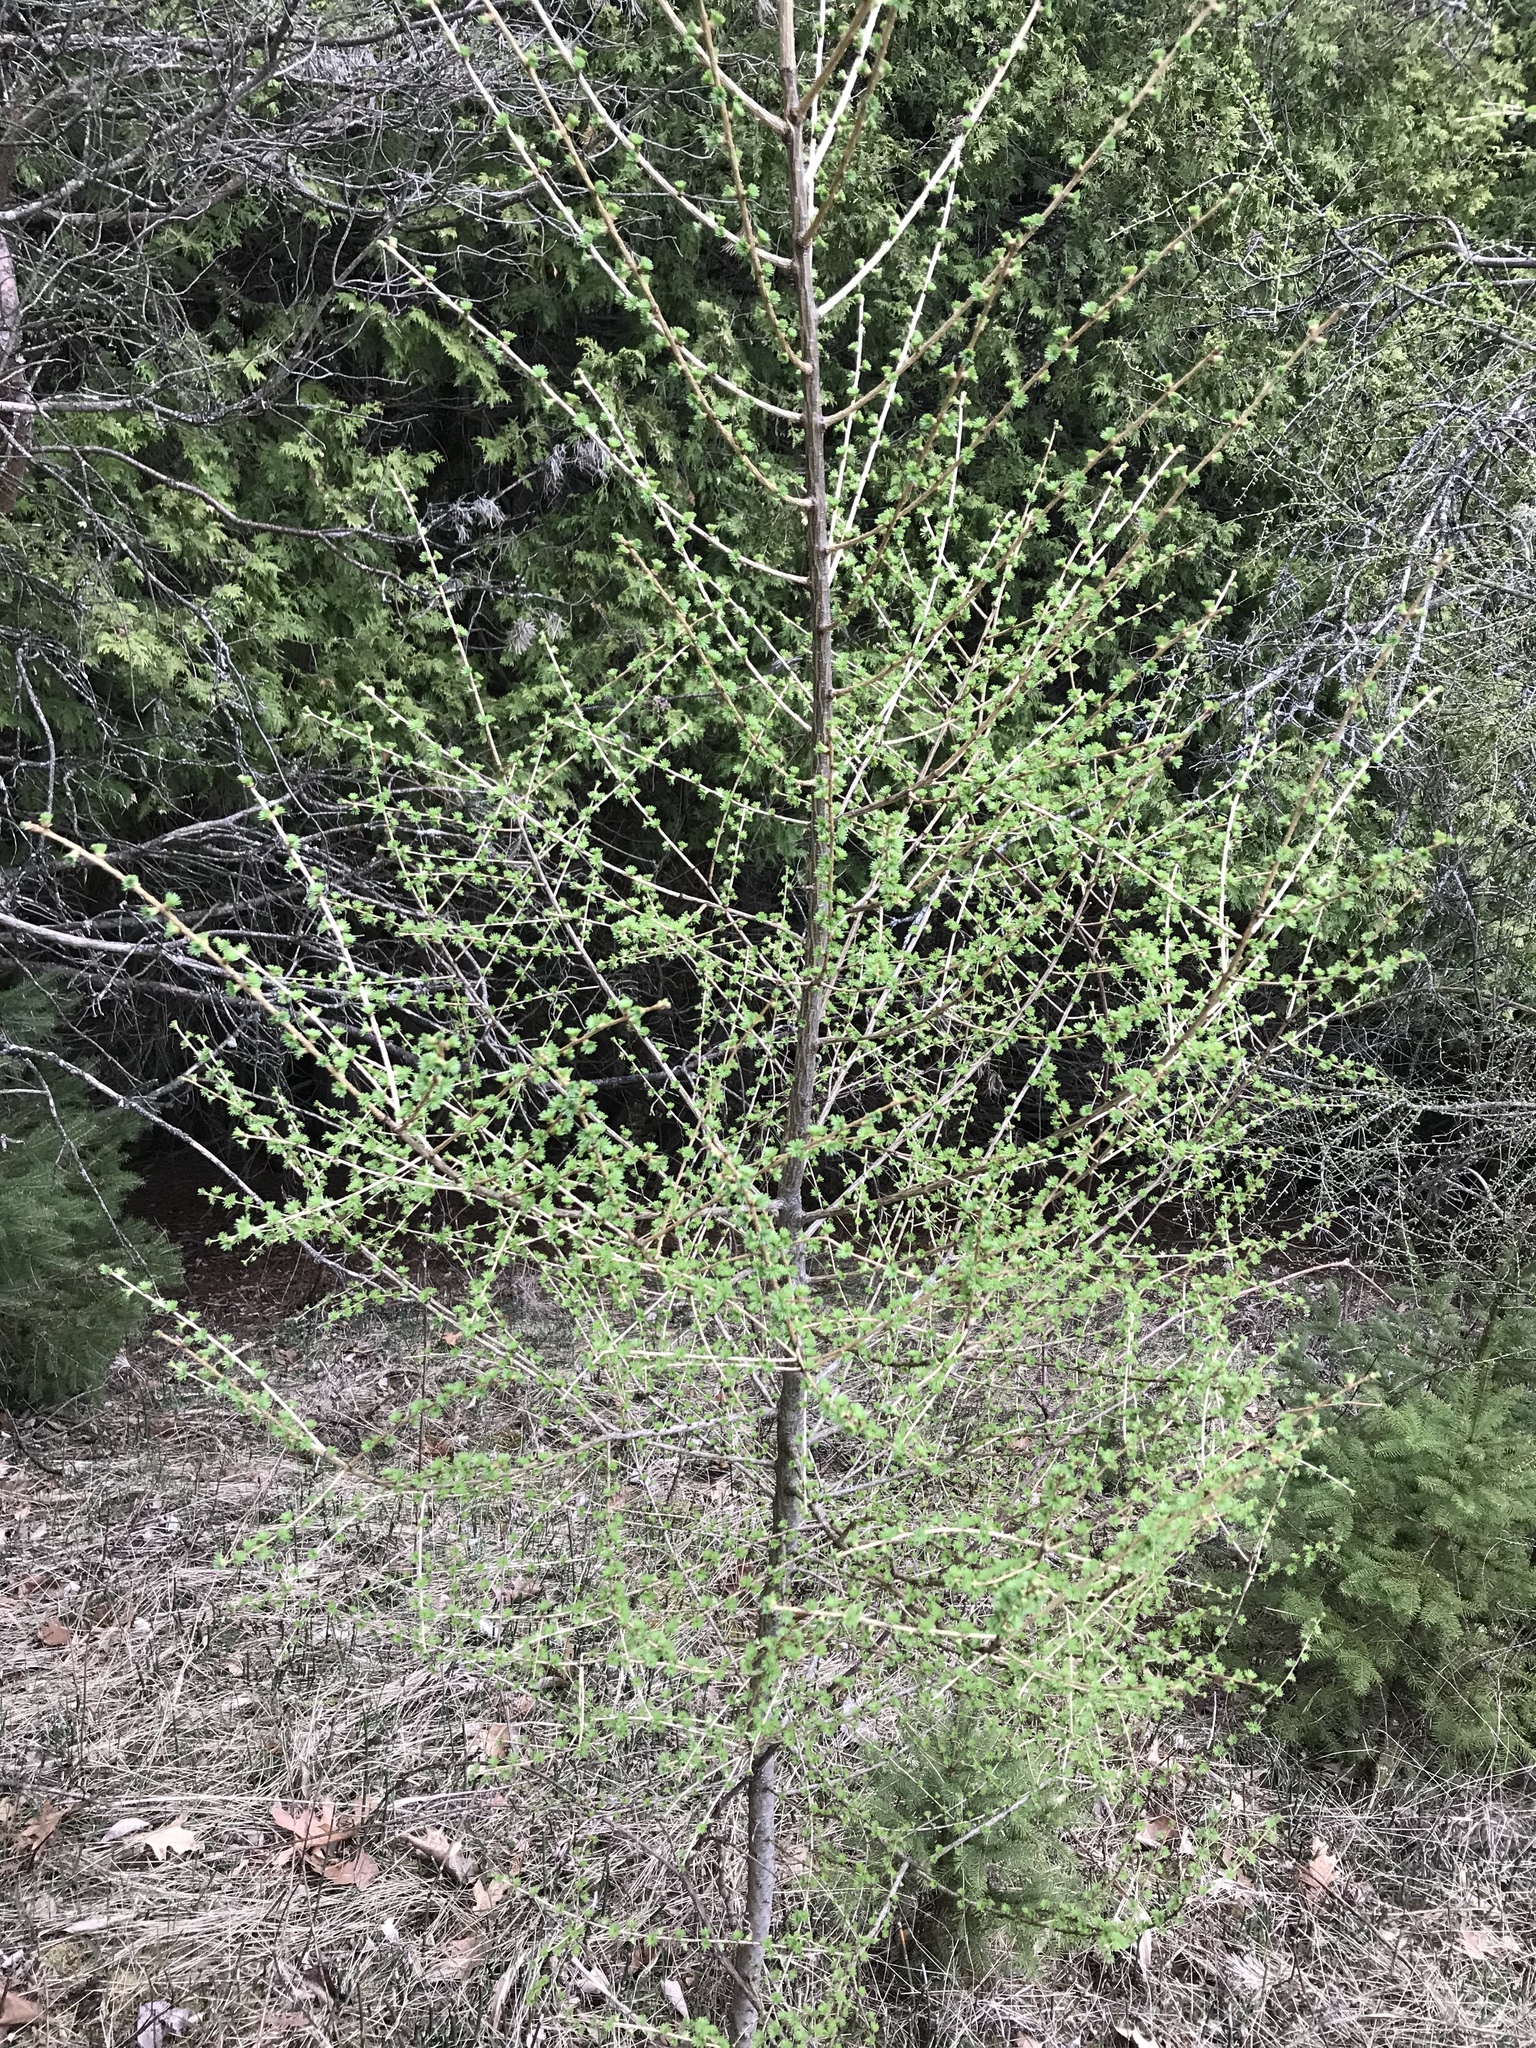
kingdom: Plantae
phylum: Tracheophyta
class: Pinopsida
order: Pinales
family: Pinaceae
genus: Larix
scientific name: Larix laricina
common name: American larch
